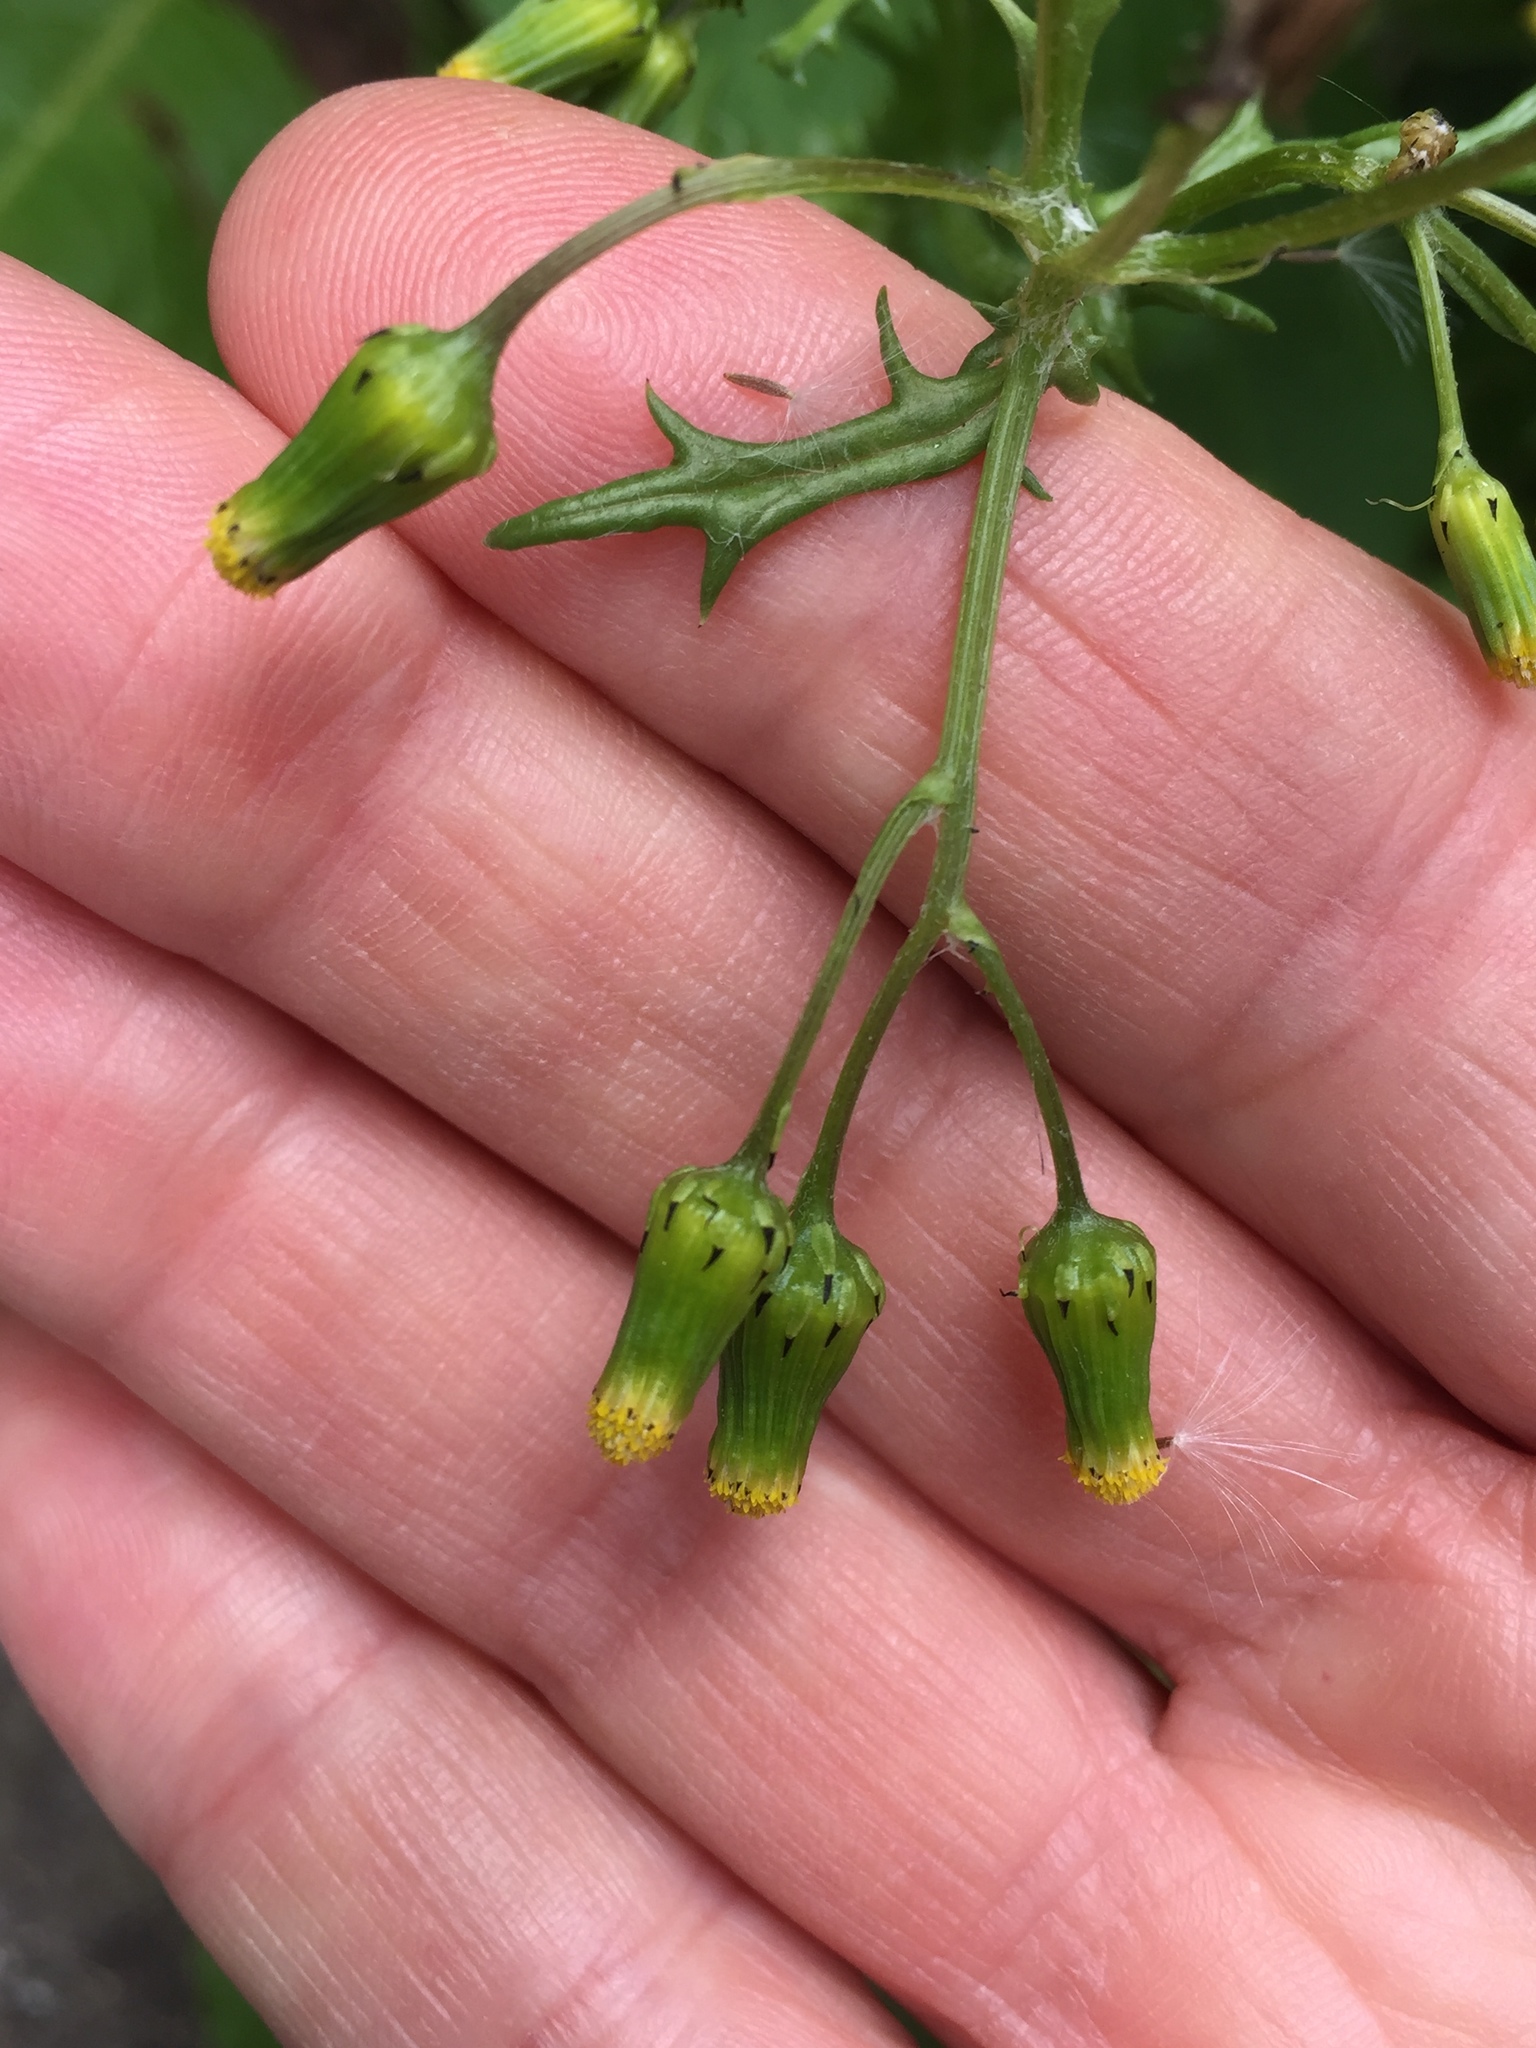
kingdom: Plantae
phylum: Tracheophyta
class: Magnoliopsida
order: Asterales
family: Asteraceae
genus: Senecio
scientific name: Senecio vulgaris
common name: Old-man-in-the-spring
